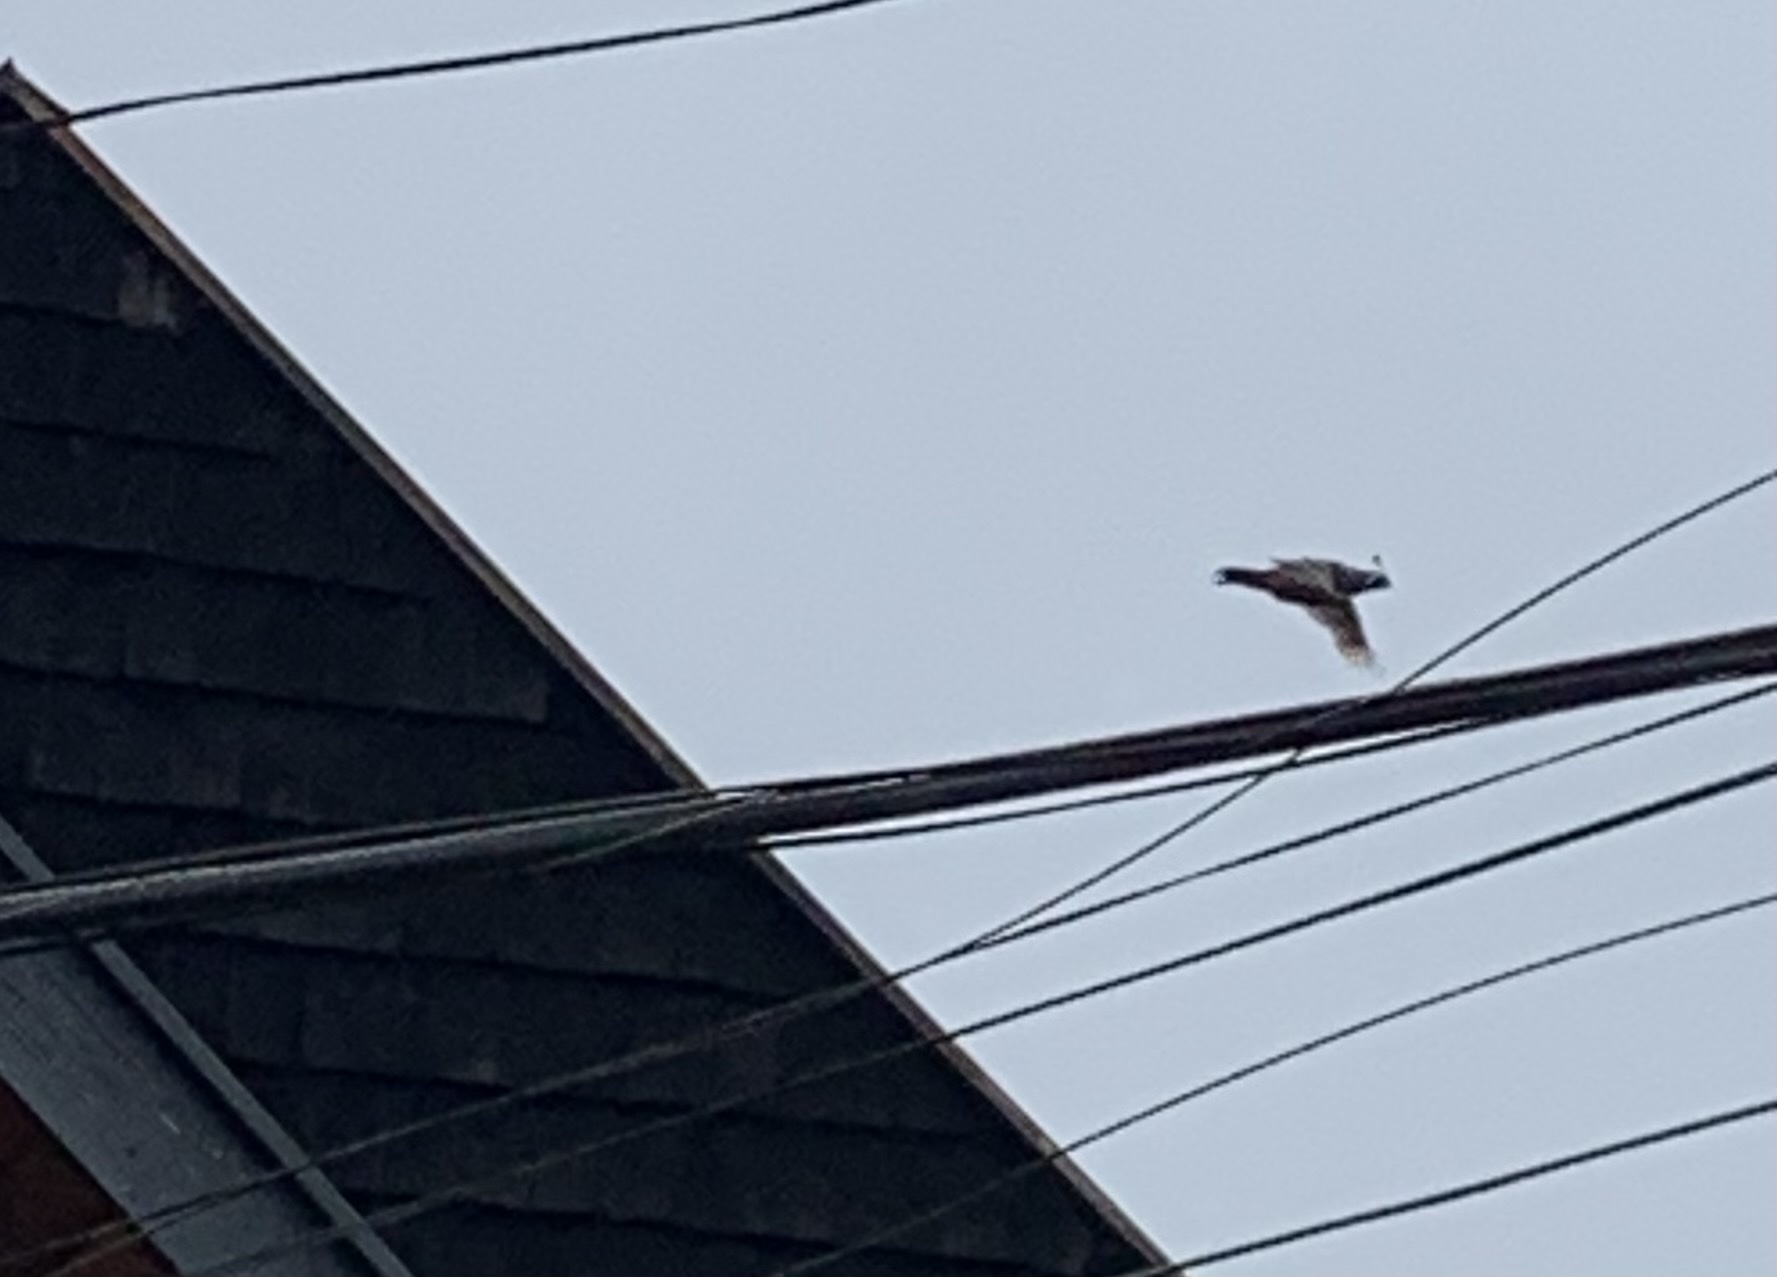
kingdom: Animalia
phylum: Chordata
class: Aves
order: Galliformes
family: Odontophoridae
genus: Callipepla
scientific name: Callipepla californica
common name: California quail
